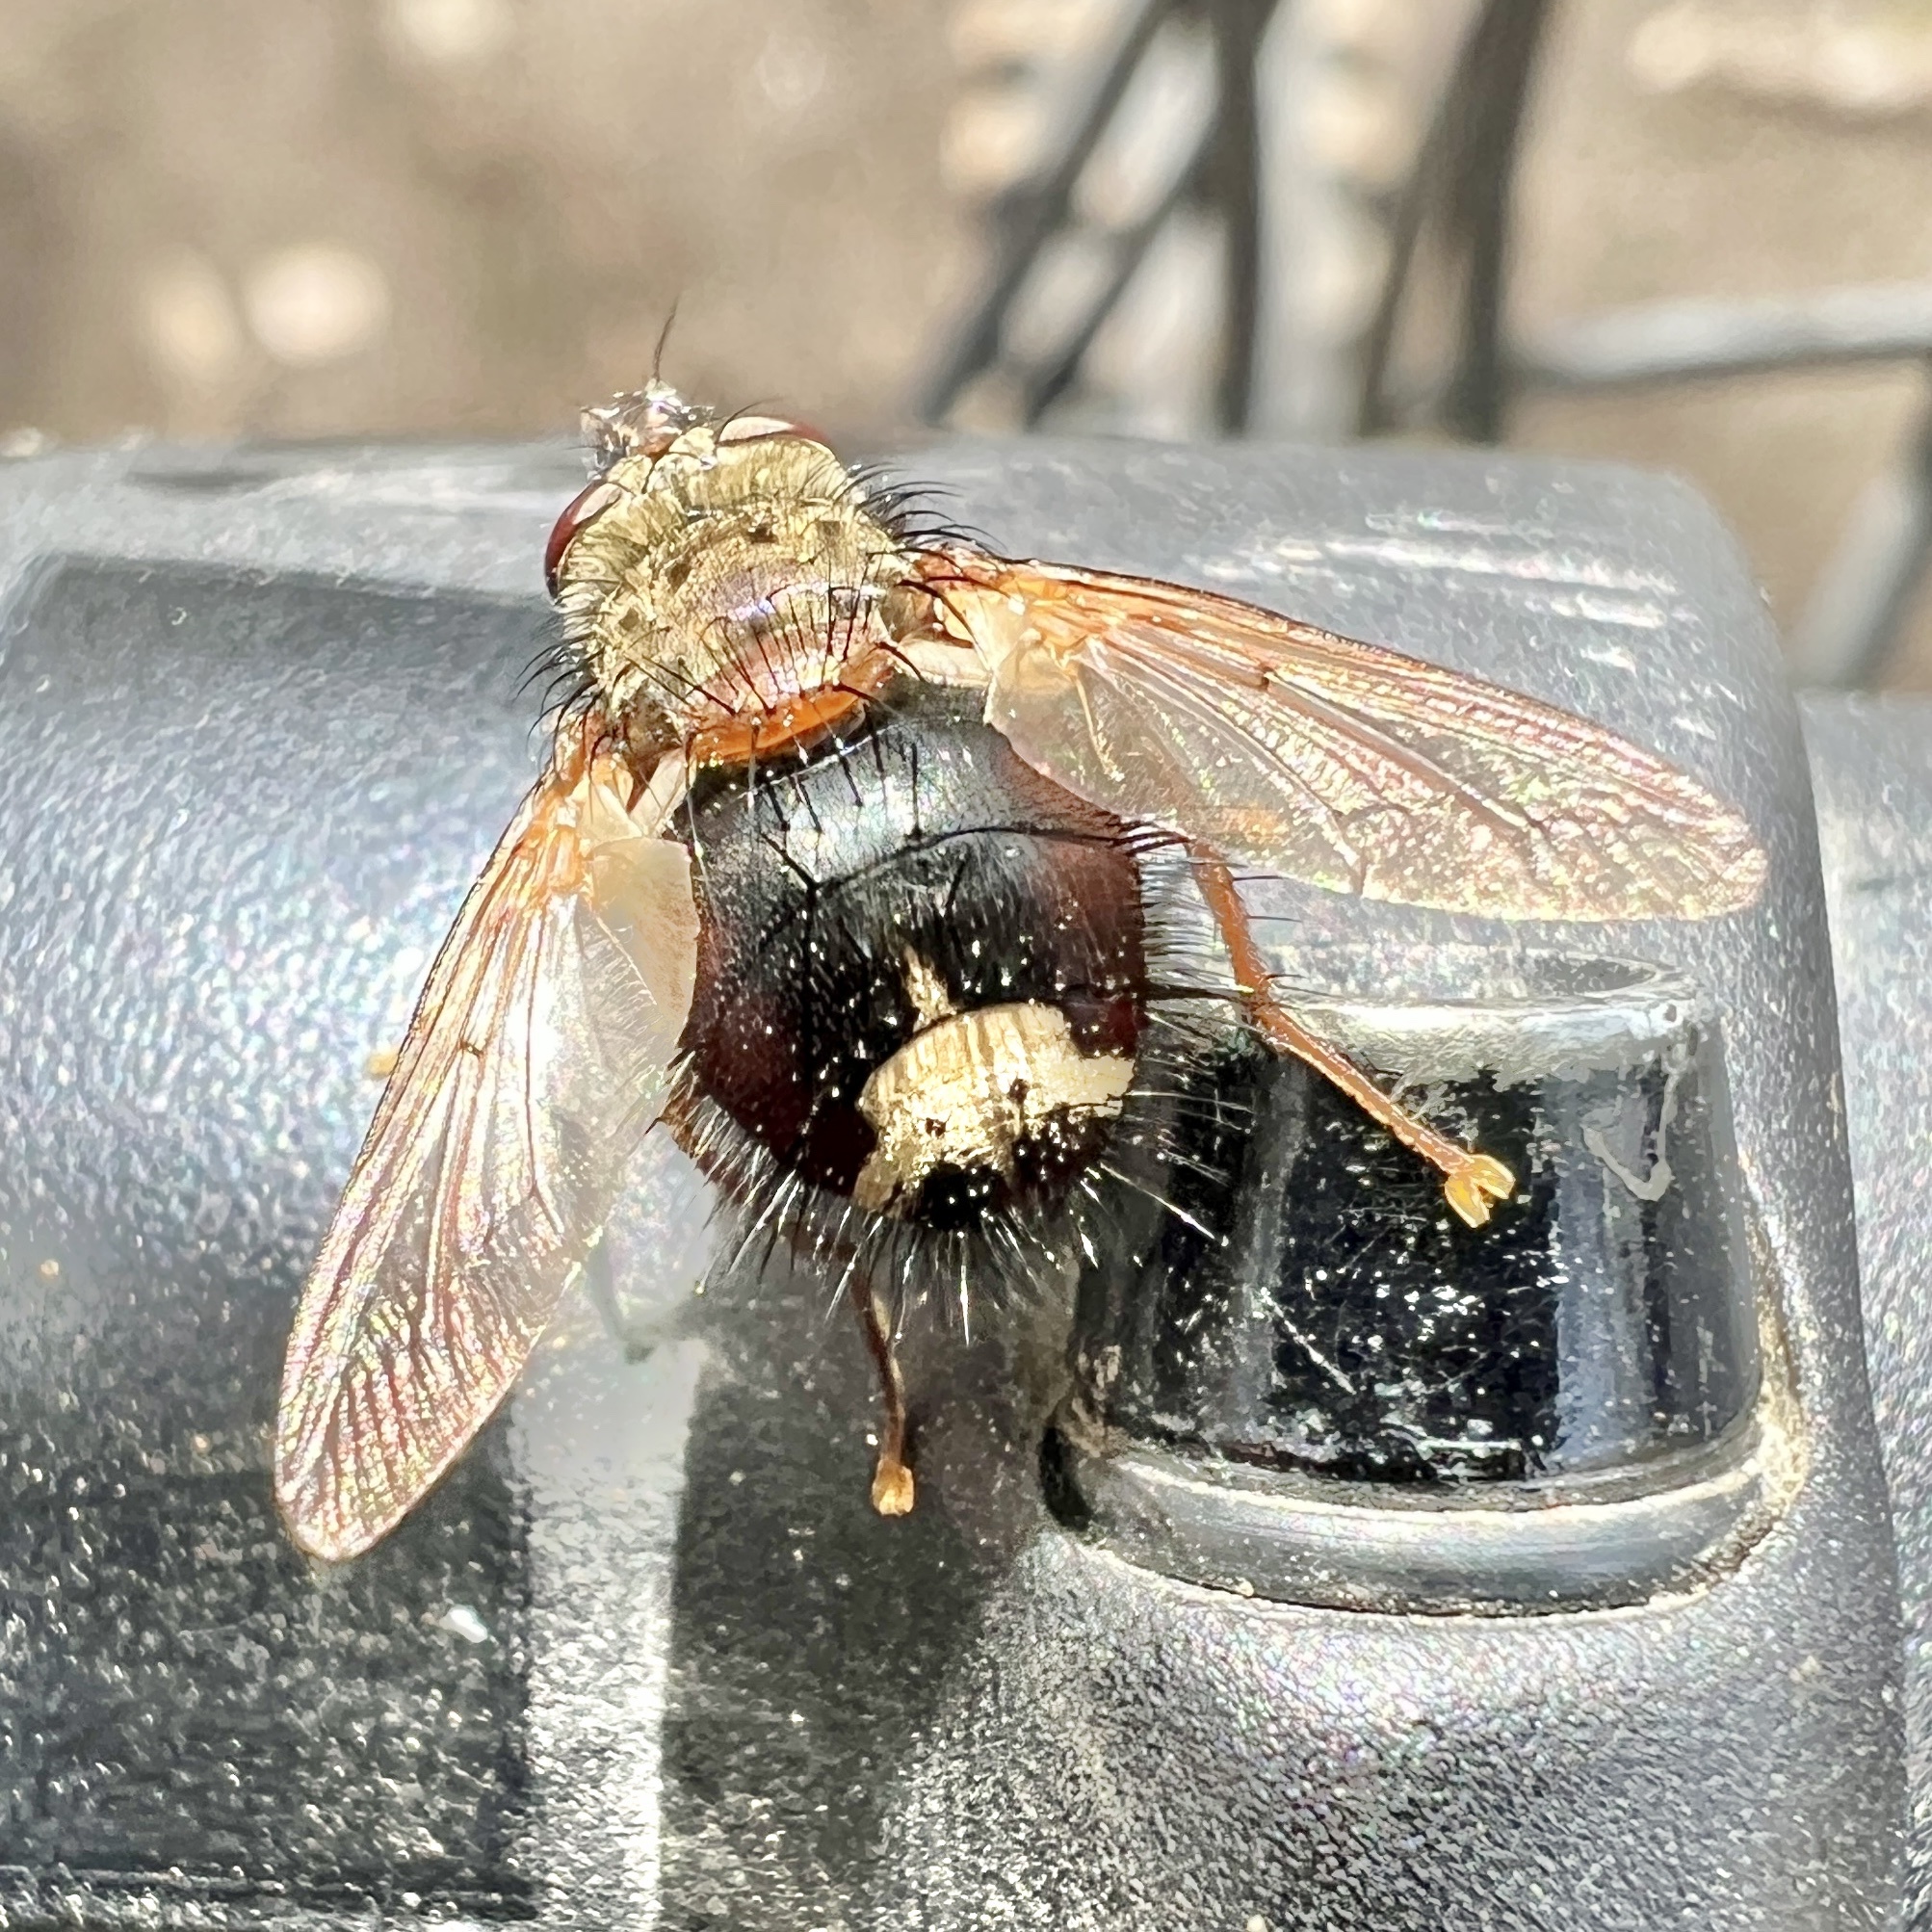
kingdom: Animalia
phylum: Arthropoda
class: Insecta
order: Diptera
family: Tachinidae
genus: Epalpus
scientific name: Epalpus signifer
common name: Early tachinid fly
